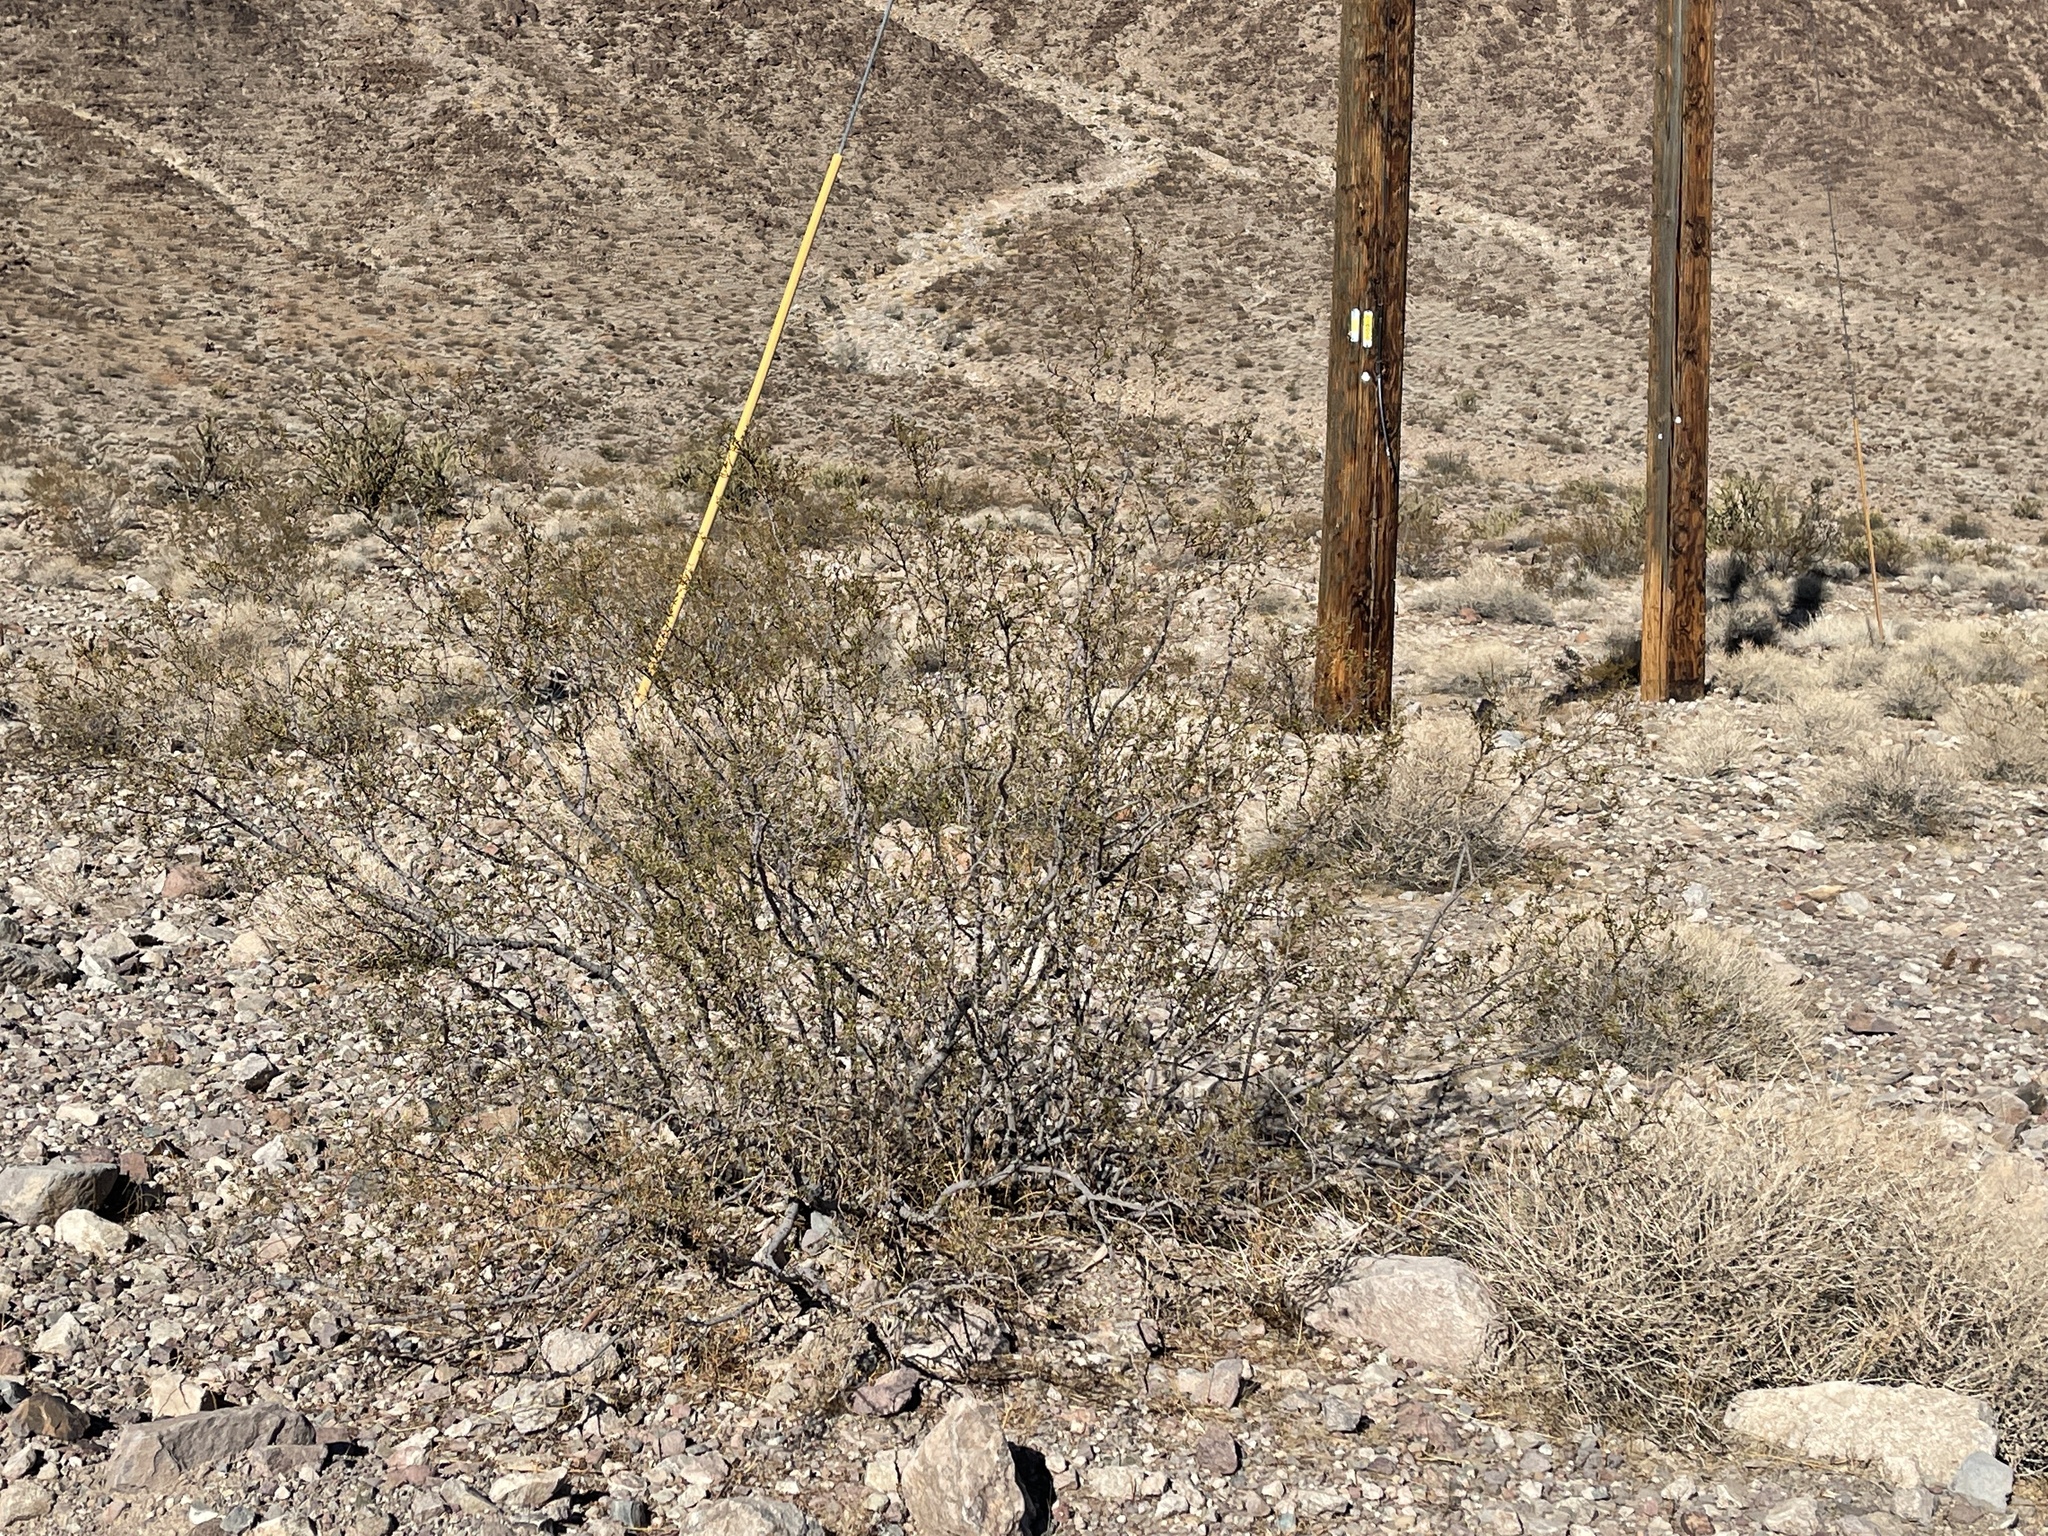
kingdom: Plantae
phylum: Tracheophyta
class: Magnoliopsida
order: Zygophyllales
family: Zygophyllaceae
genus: Larrea
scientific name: Larrea tridentata
